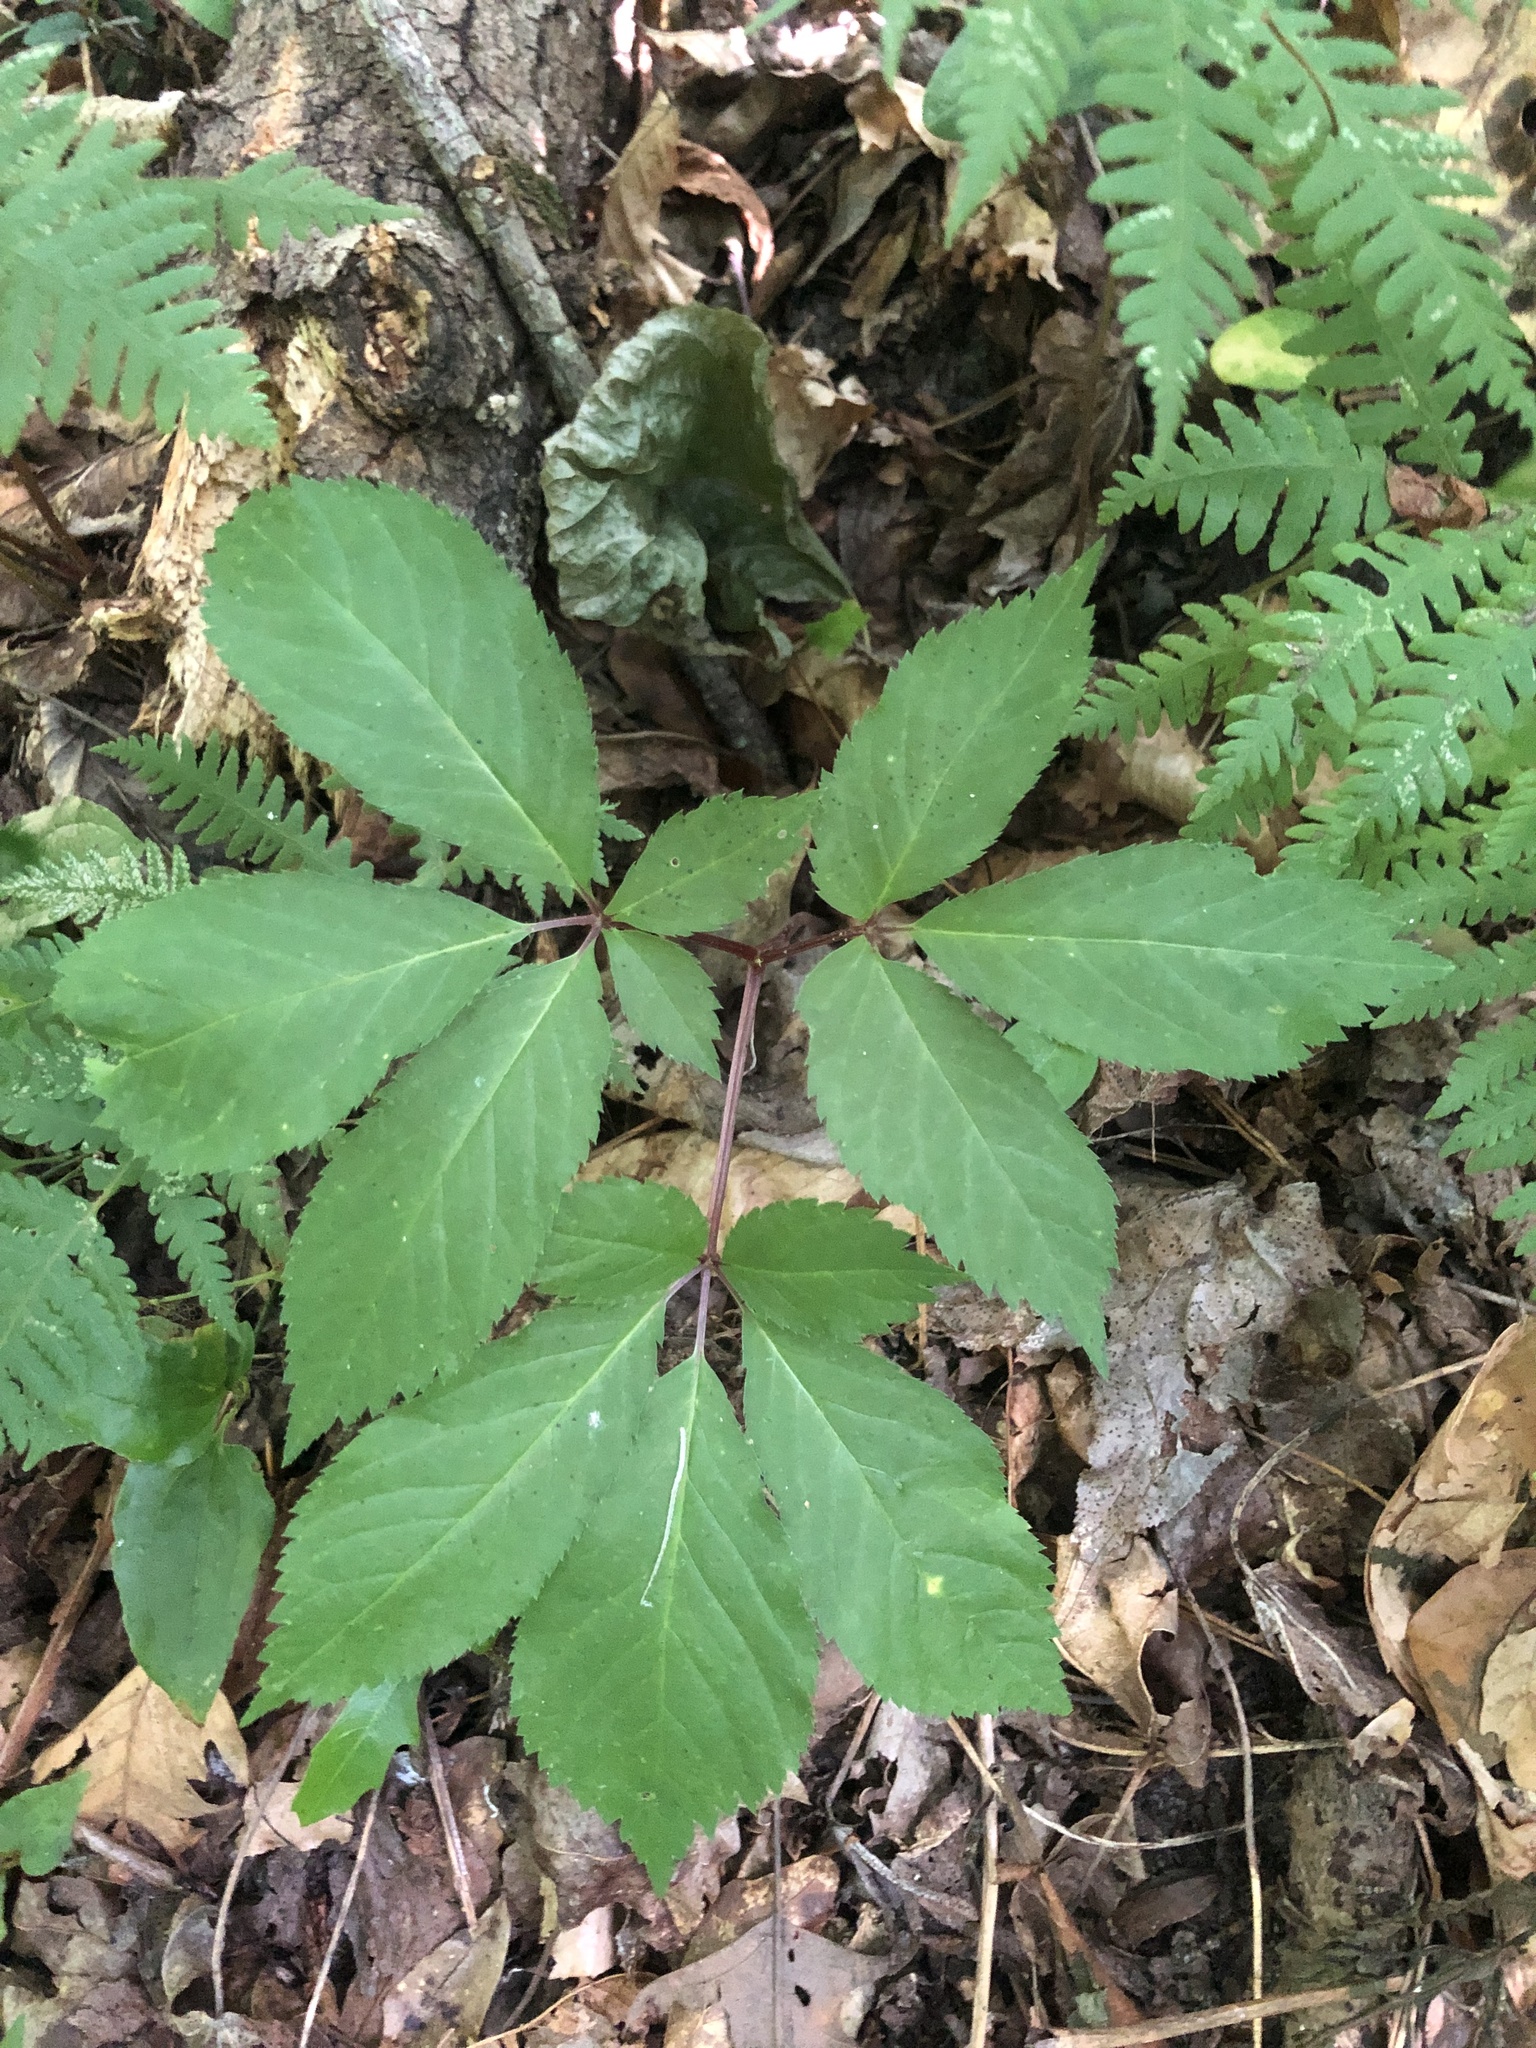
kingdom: Plantae
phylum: Tracheophyta
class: Magnoliopsida
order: Apiales
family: Araliaceae
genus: Panax
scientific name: Panax quinquefolius
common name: American ginseng
